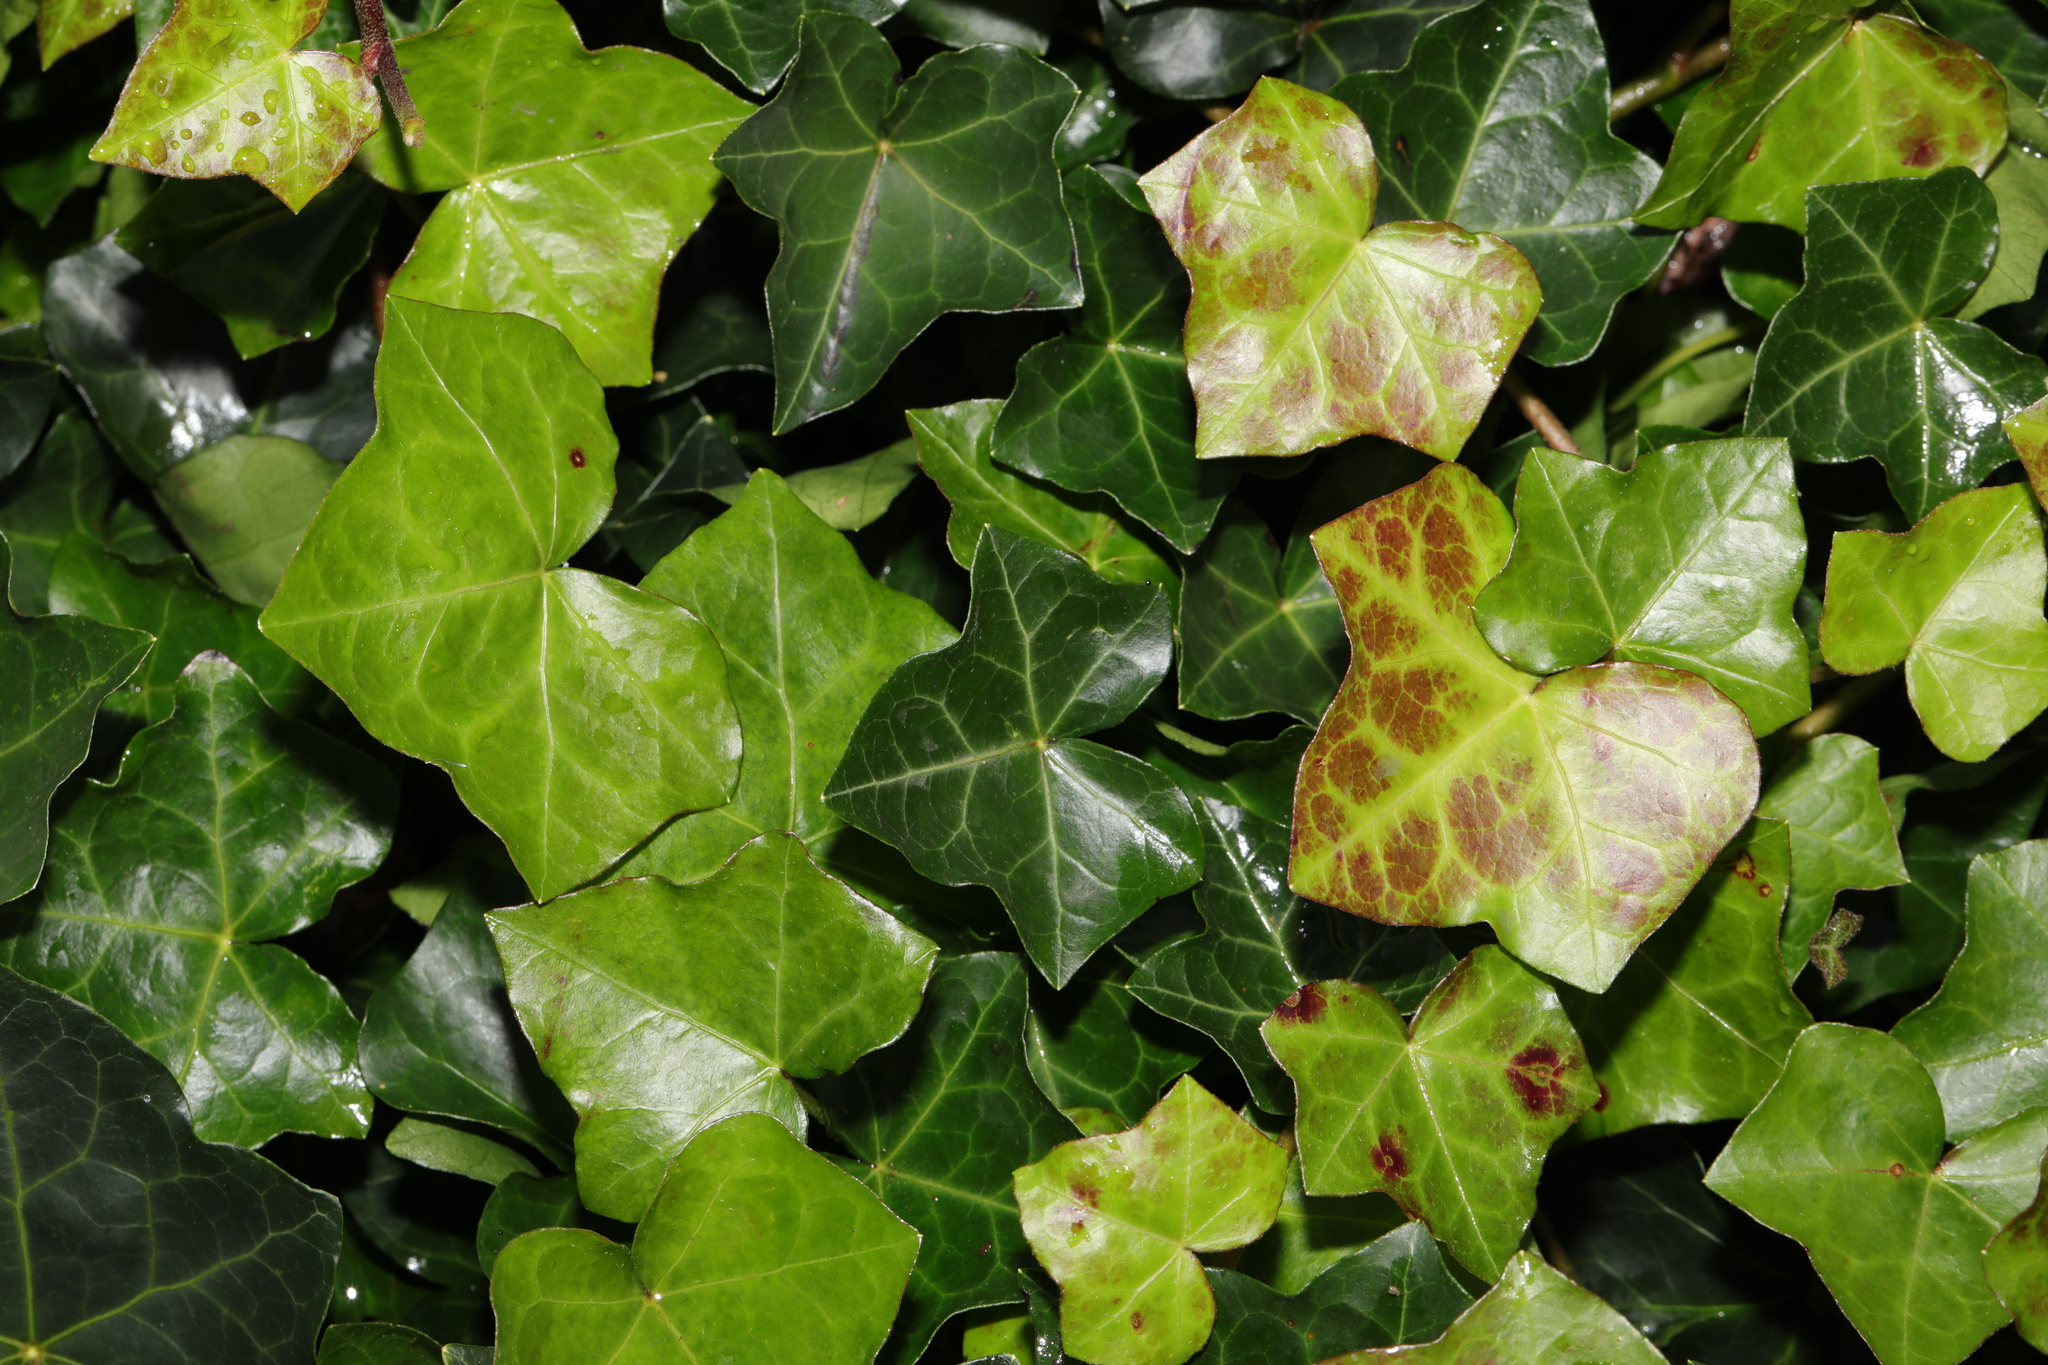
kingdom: Plantae
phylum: Tracheophyta
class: Magnoliopsida
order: Apiales
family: Araliaceae
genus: Hedera
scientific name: Hedera helix
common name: Ivy
